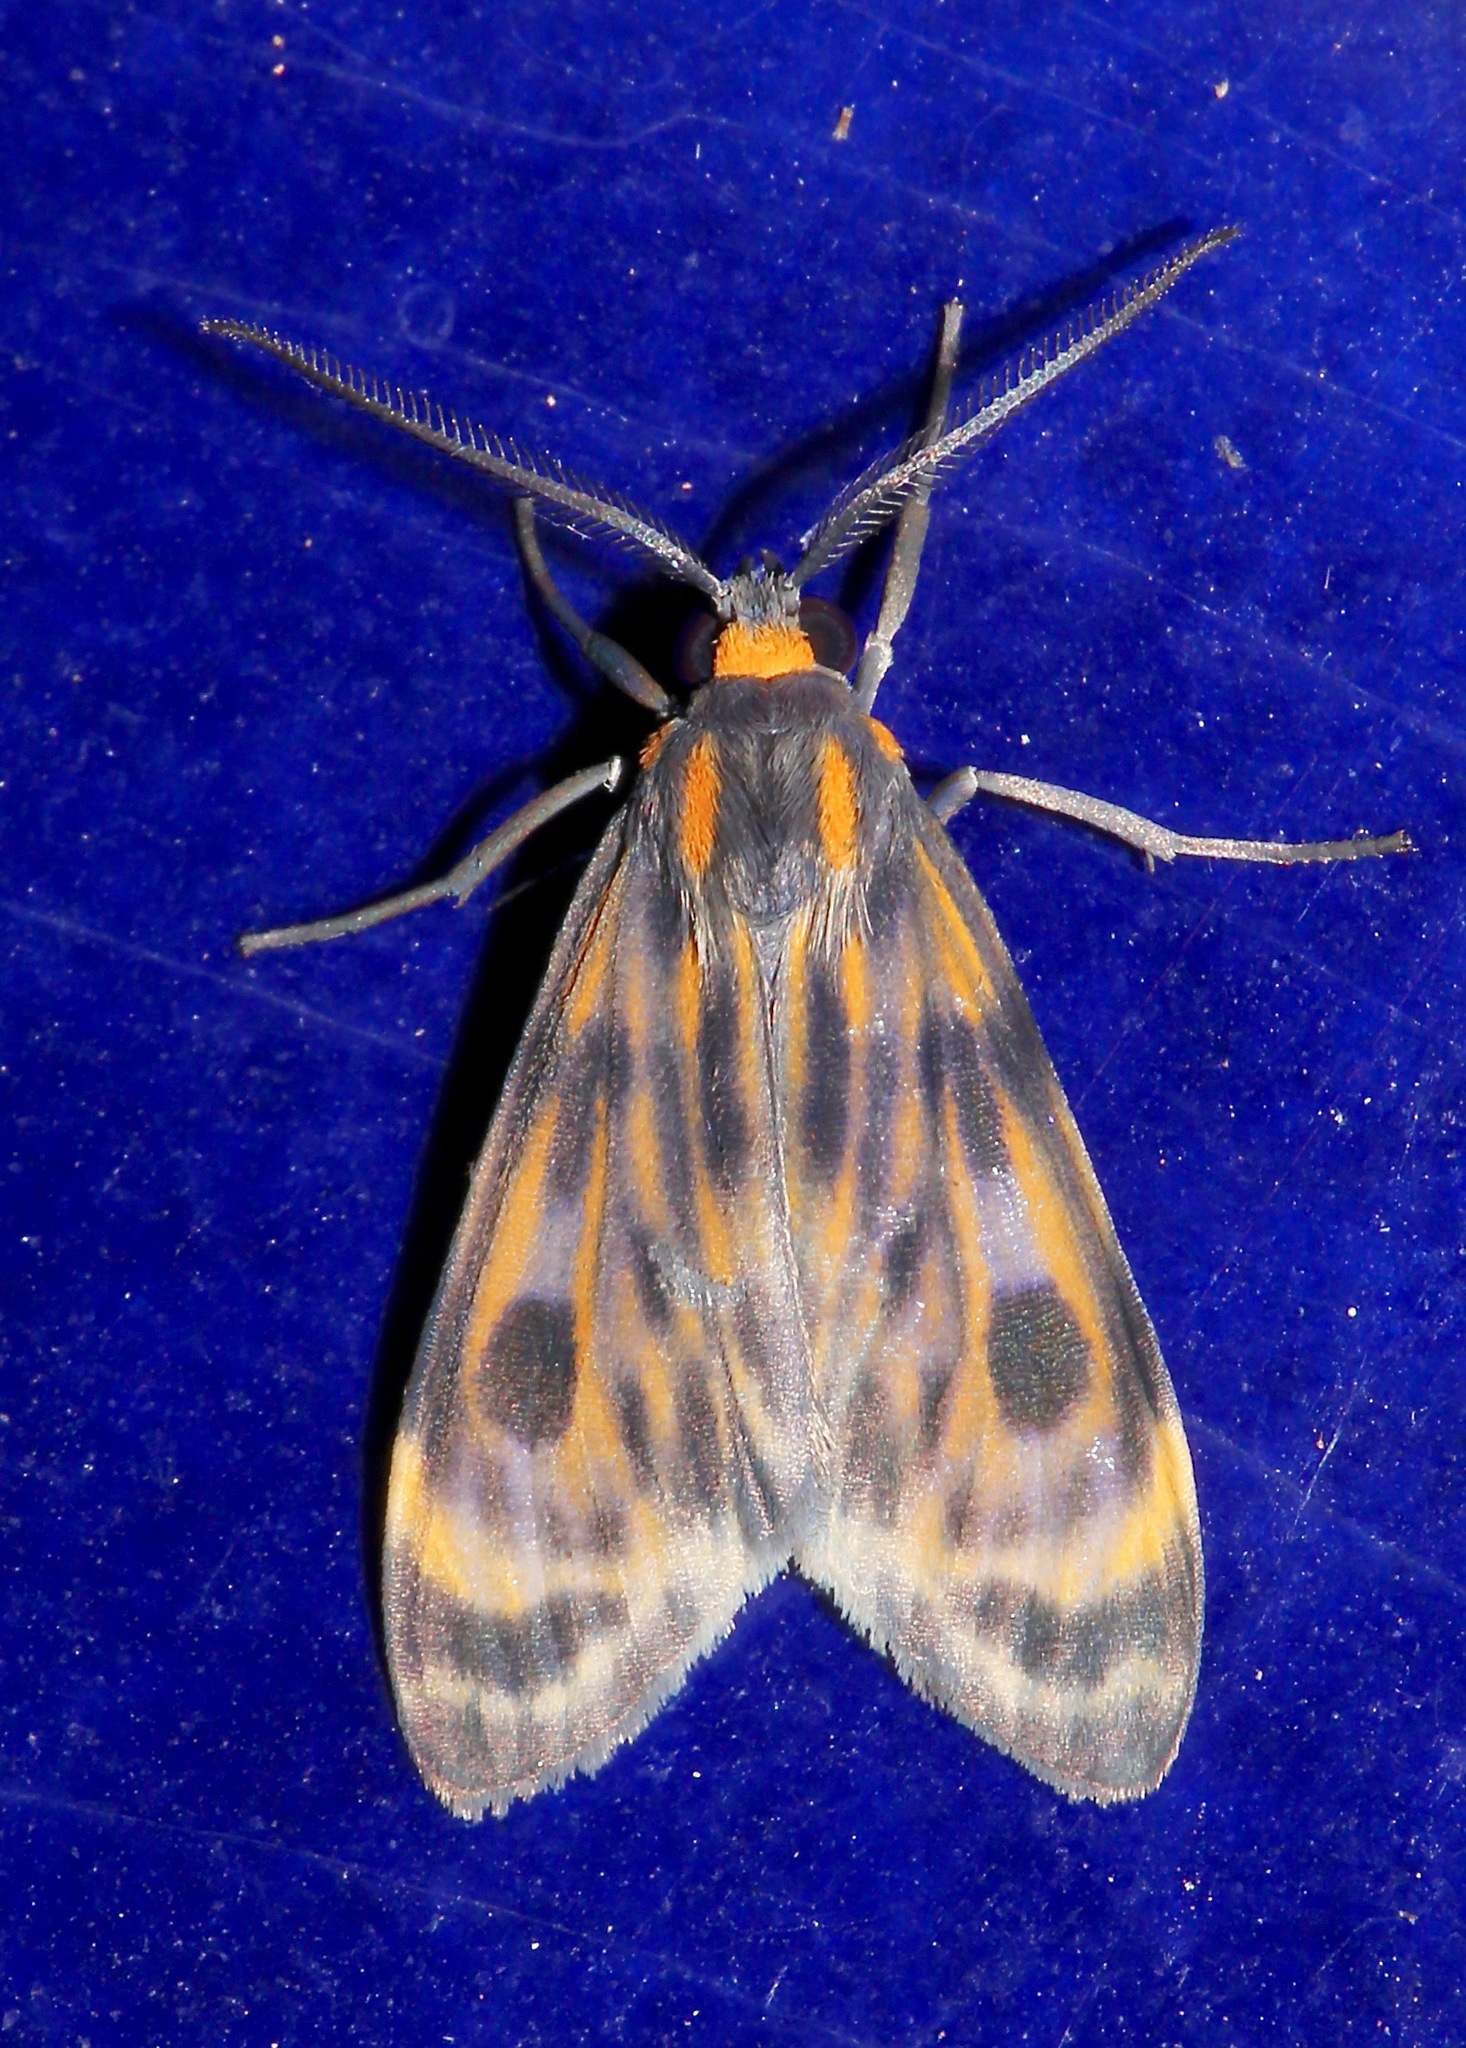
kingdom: Animalia
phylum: Arthropoda
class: Insecta
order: Lepidoptera
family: Erebidae
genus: Eucereon
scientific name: Eucereon phaeoproctum
